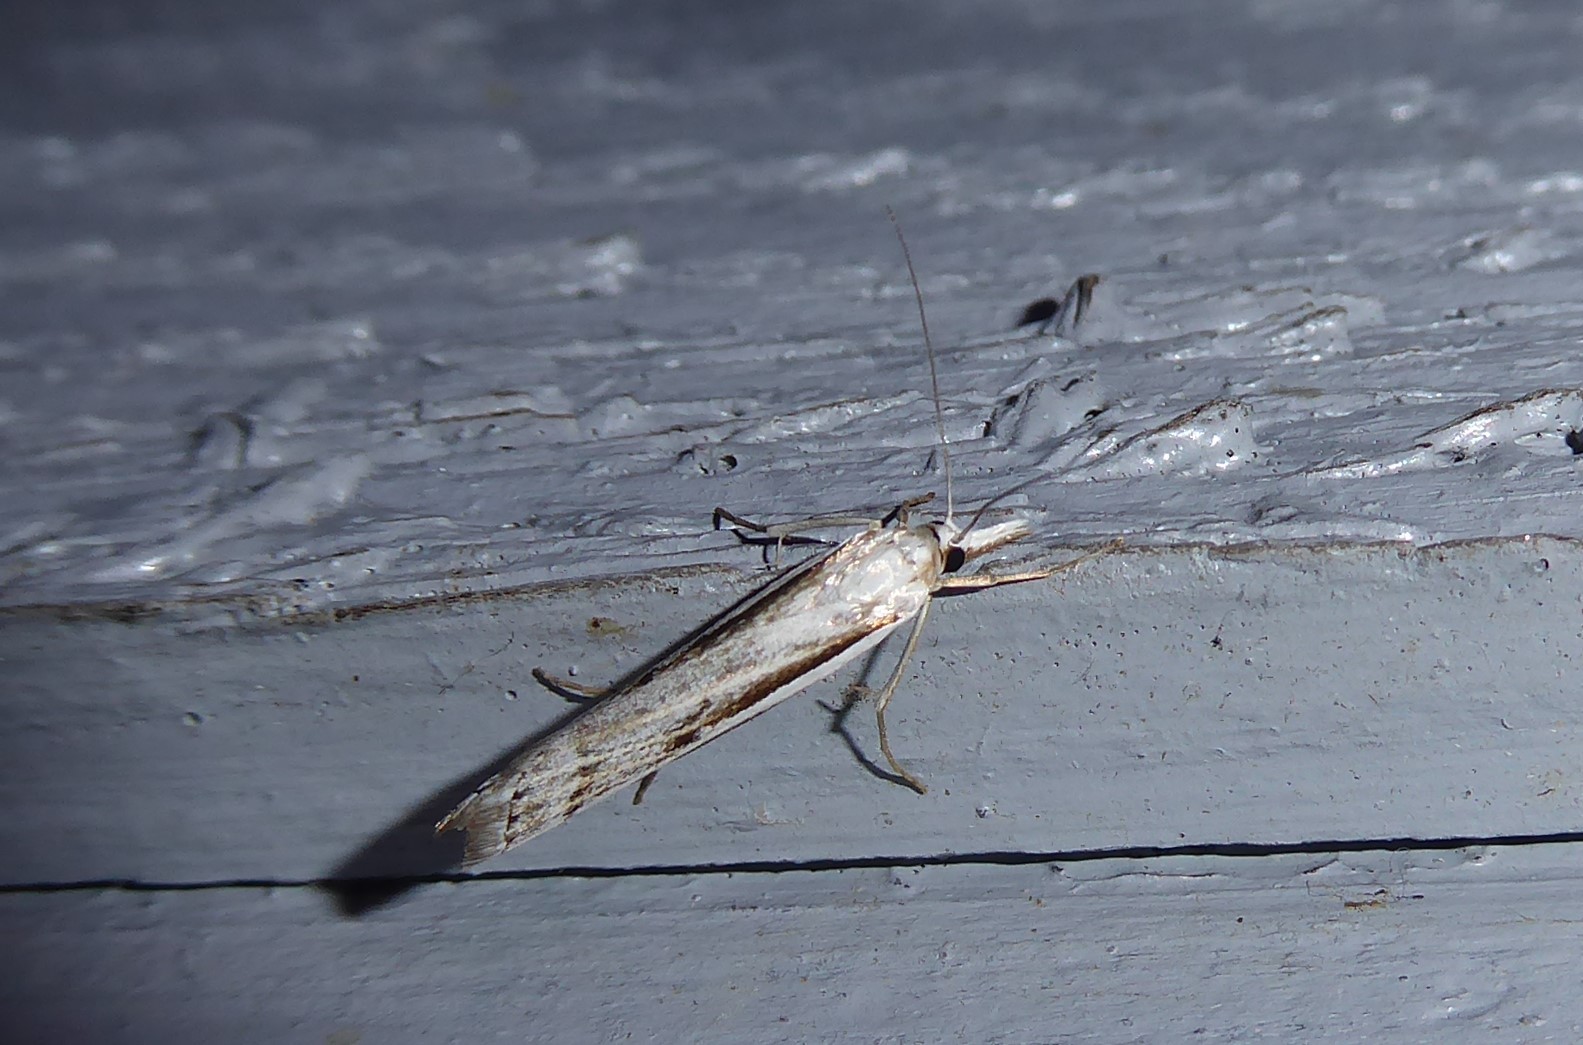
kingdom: Animalia
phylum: Arthropoda
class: Insecta
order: Lepidoptera
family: Crambidae
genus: Orocrambus
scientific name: Orocrambus vittellus
